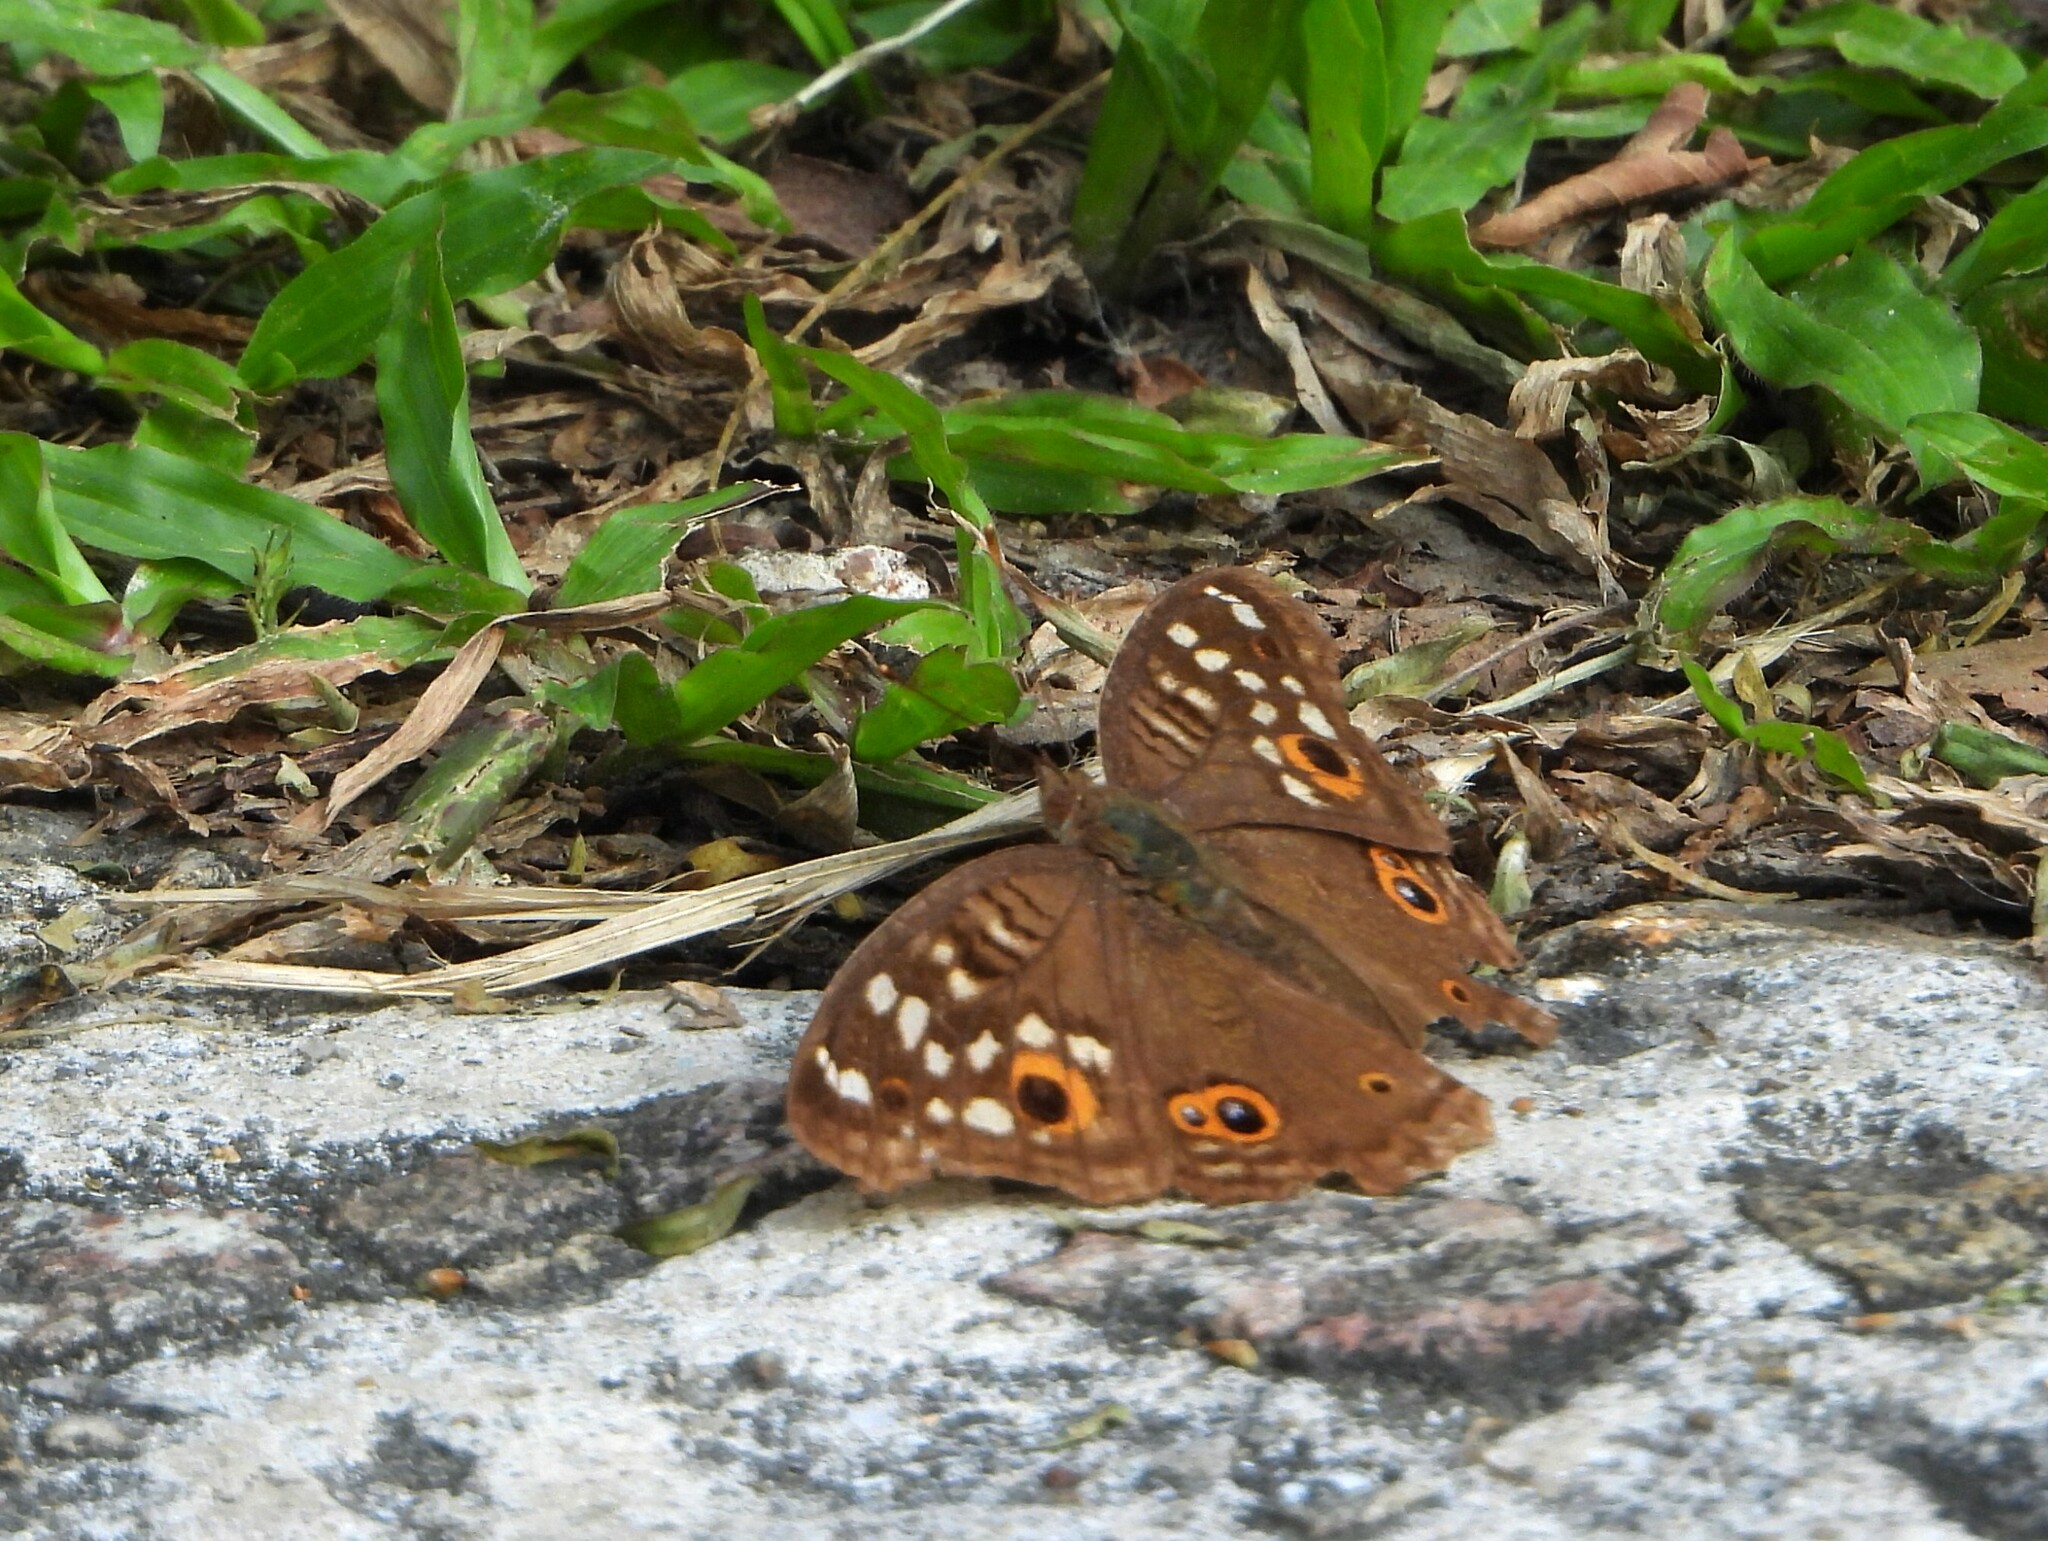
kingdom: Animalia
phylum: Arthropoda
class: Insecta
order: Lepidoptera
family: Nymphalidae
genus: Junonia
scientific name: Junonia lemonias
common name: Lemon pansy
